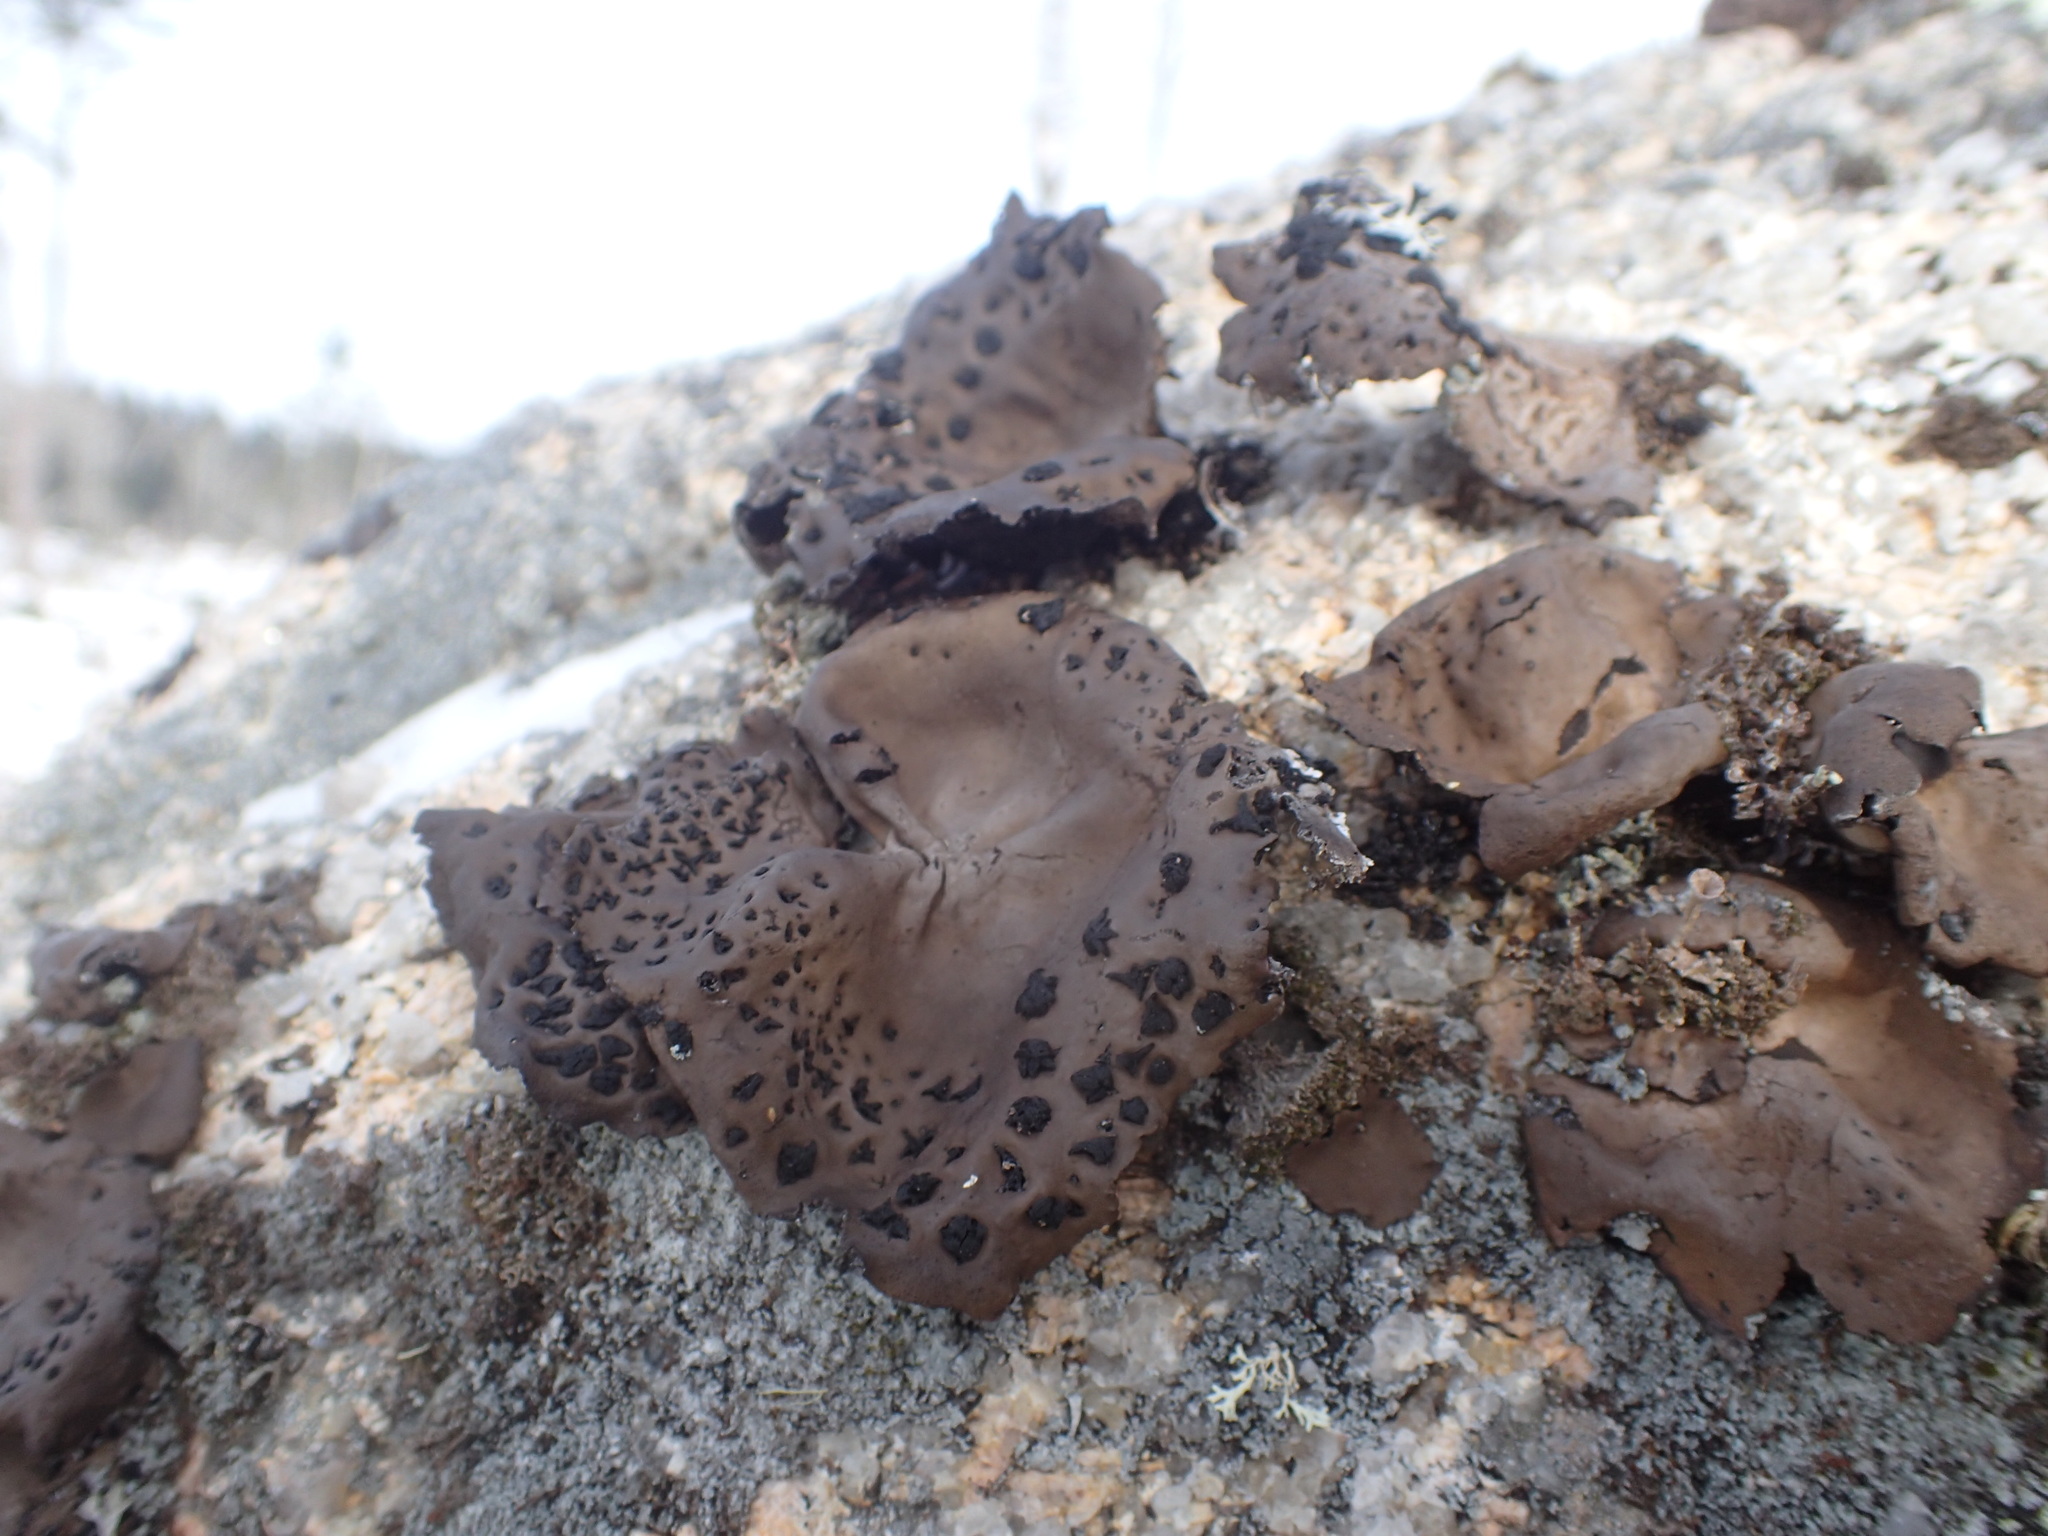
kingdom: Fungi
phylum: Ascomycota
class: Lecanoromycetes
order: Umbilicariales
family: Umbilicariaceae
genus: Umbilicaria
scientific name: Umbilicaria muhlenbergii
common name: Lesser rocktripe
